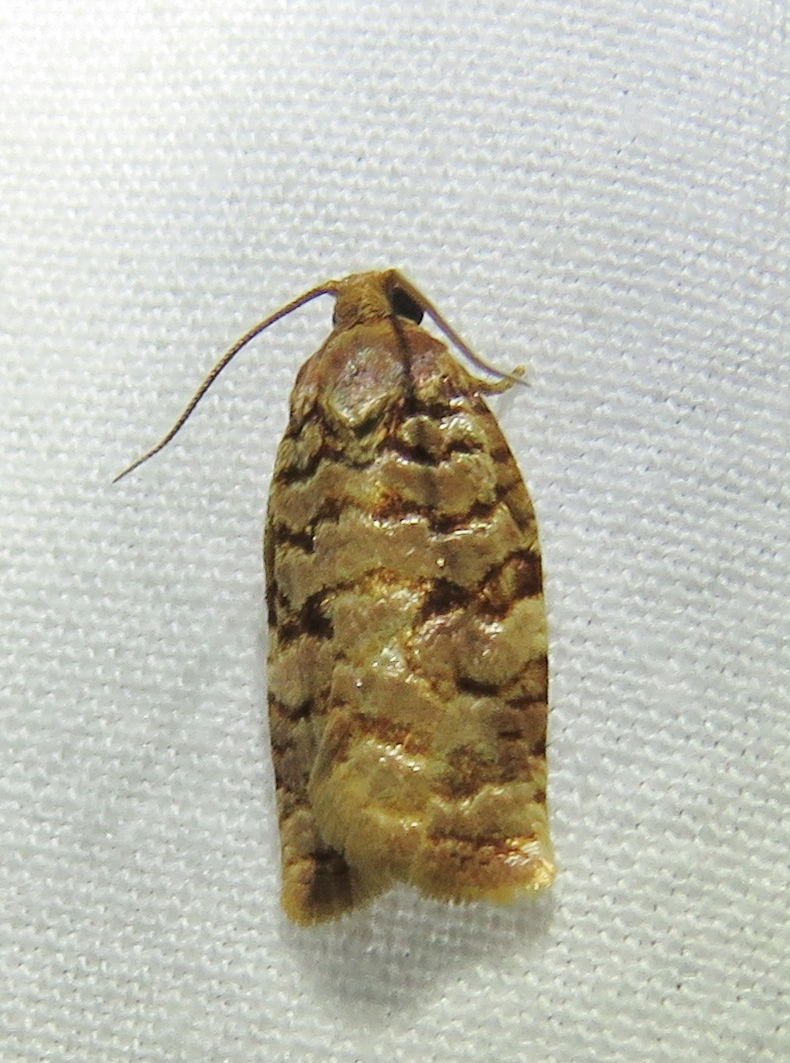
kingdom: Animalia
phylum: Arthropoda
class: Insecta
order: Lepidoptera
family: Tortricidae
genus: Archips
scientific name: Archips georgiana
